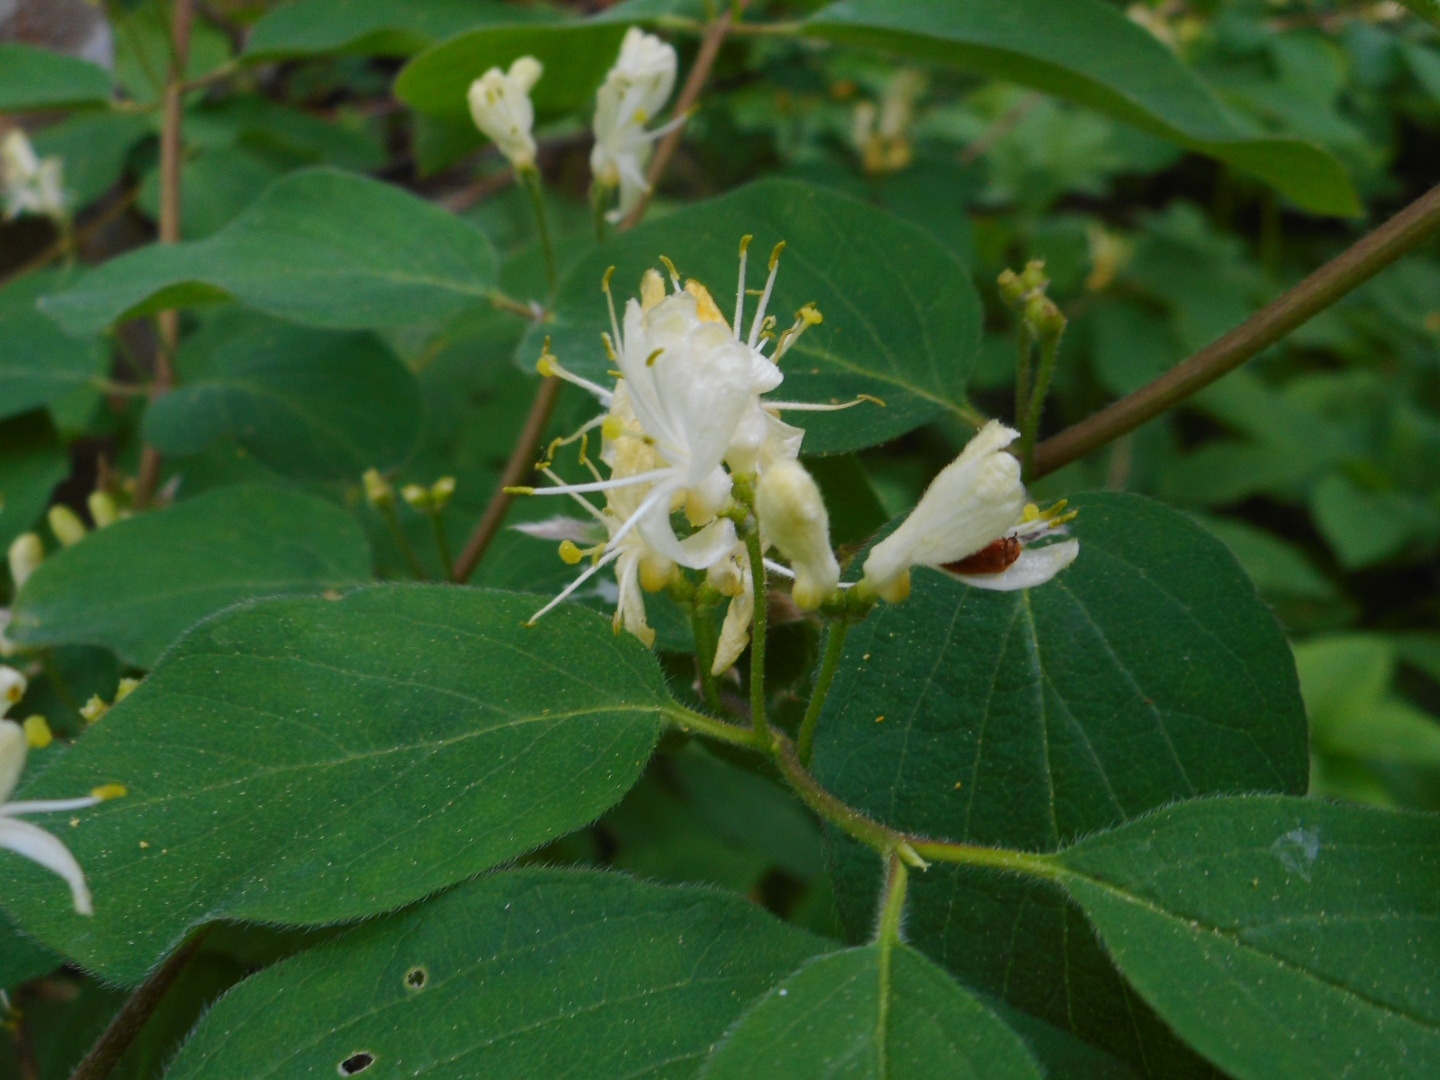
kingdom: Plantae
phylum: Tracheophyta
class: Magnoliopsida
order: Dipsacales
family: Caprifoliaceae
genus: Lonicera
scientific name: Lonicera xylosteum
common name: Fly honeysuckle
